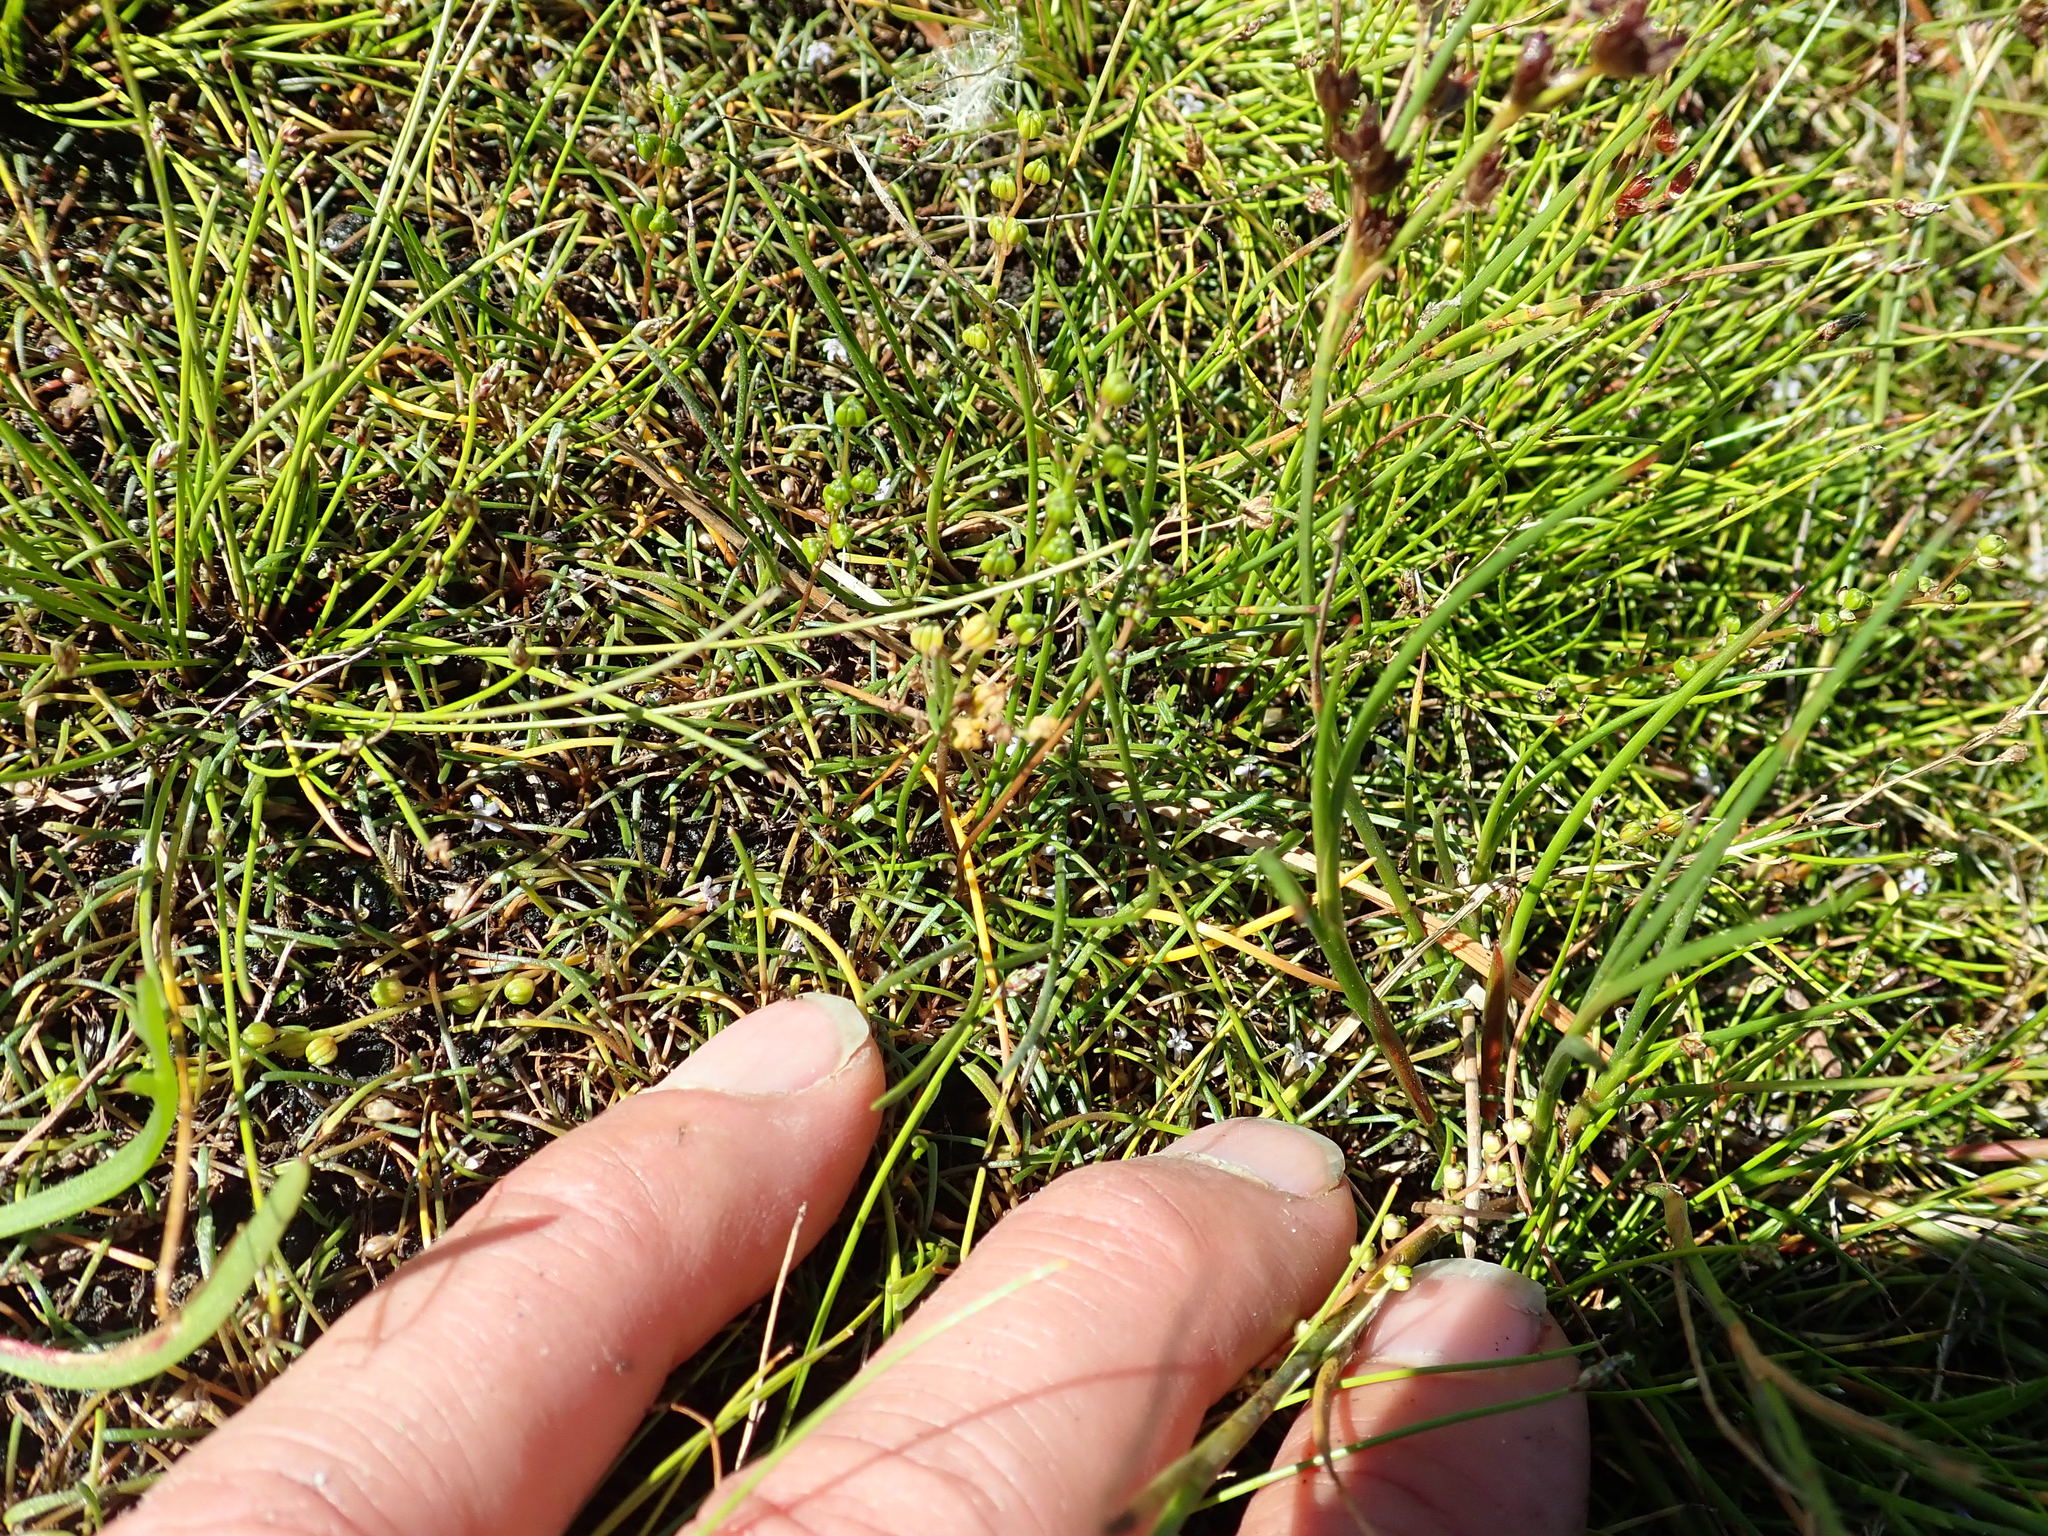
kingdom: Plantae
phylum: Tracheophyta
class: Liliopsida
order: Poales
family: Juncaceae
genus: Juncus
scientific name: Juncus articulatus
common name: Jointed rush
